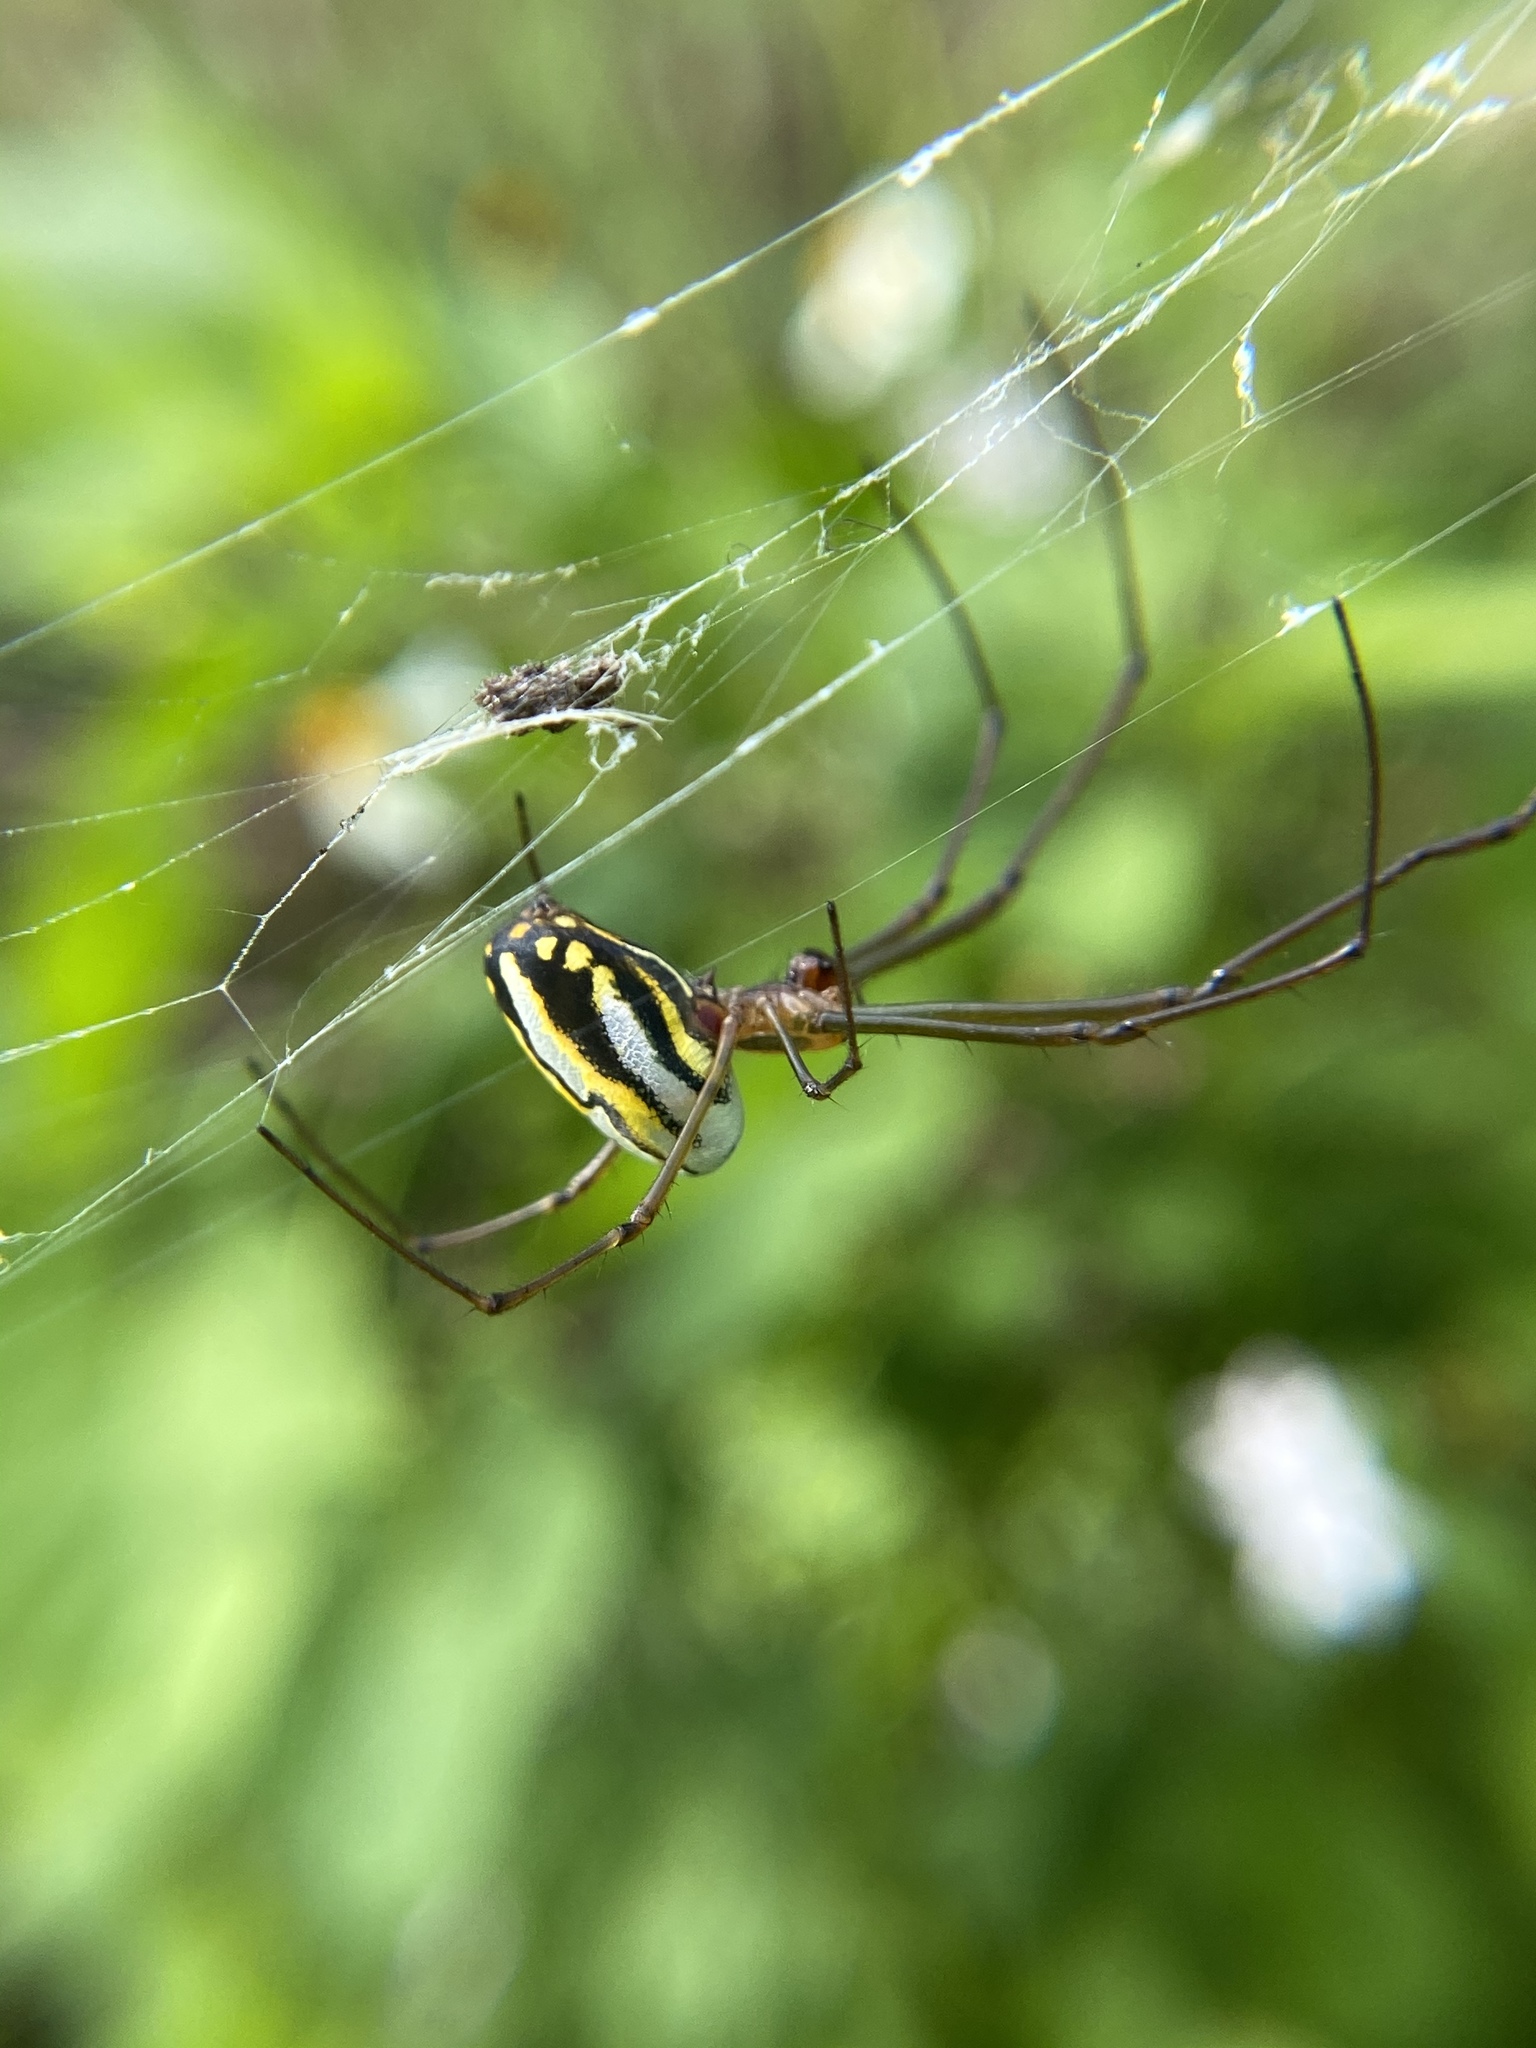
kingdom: Animalia
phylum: Arthropoda
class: Arachnida
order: Araneae
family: Tetragnathidae
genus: Leucauge
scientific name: Leucauge argyra
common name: Longjawed orb weavers
